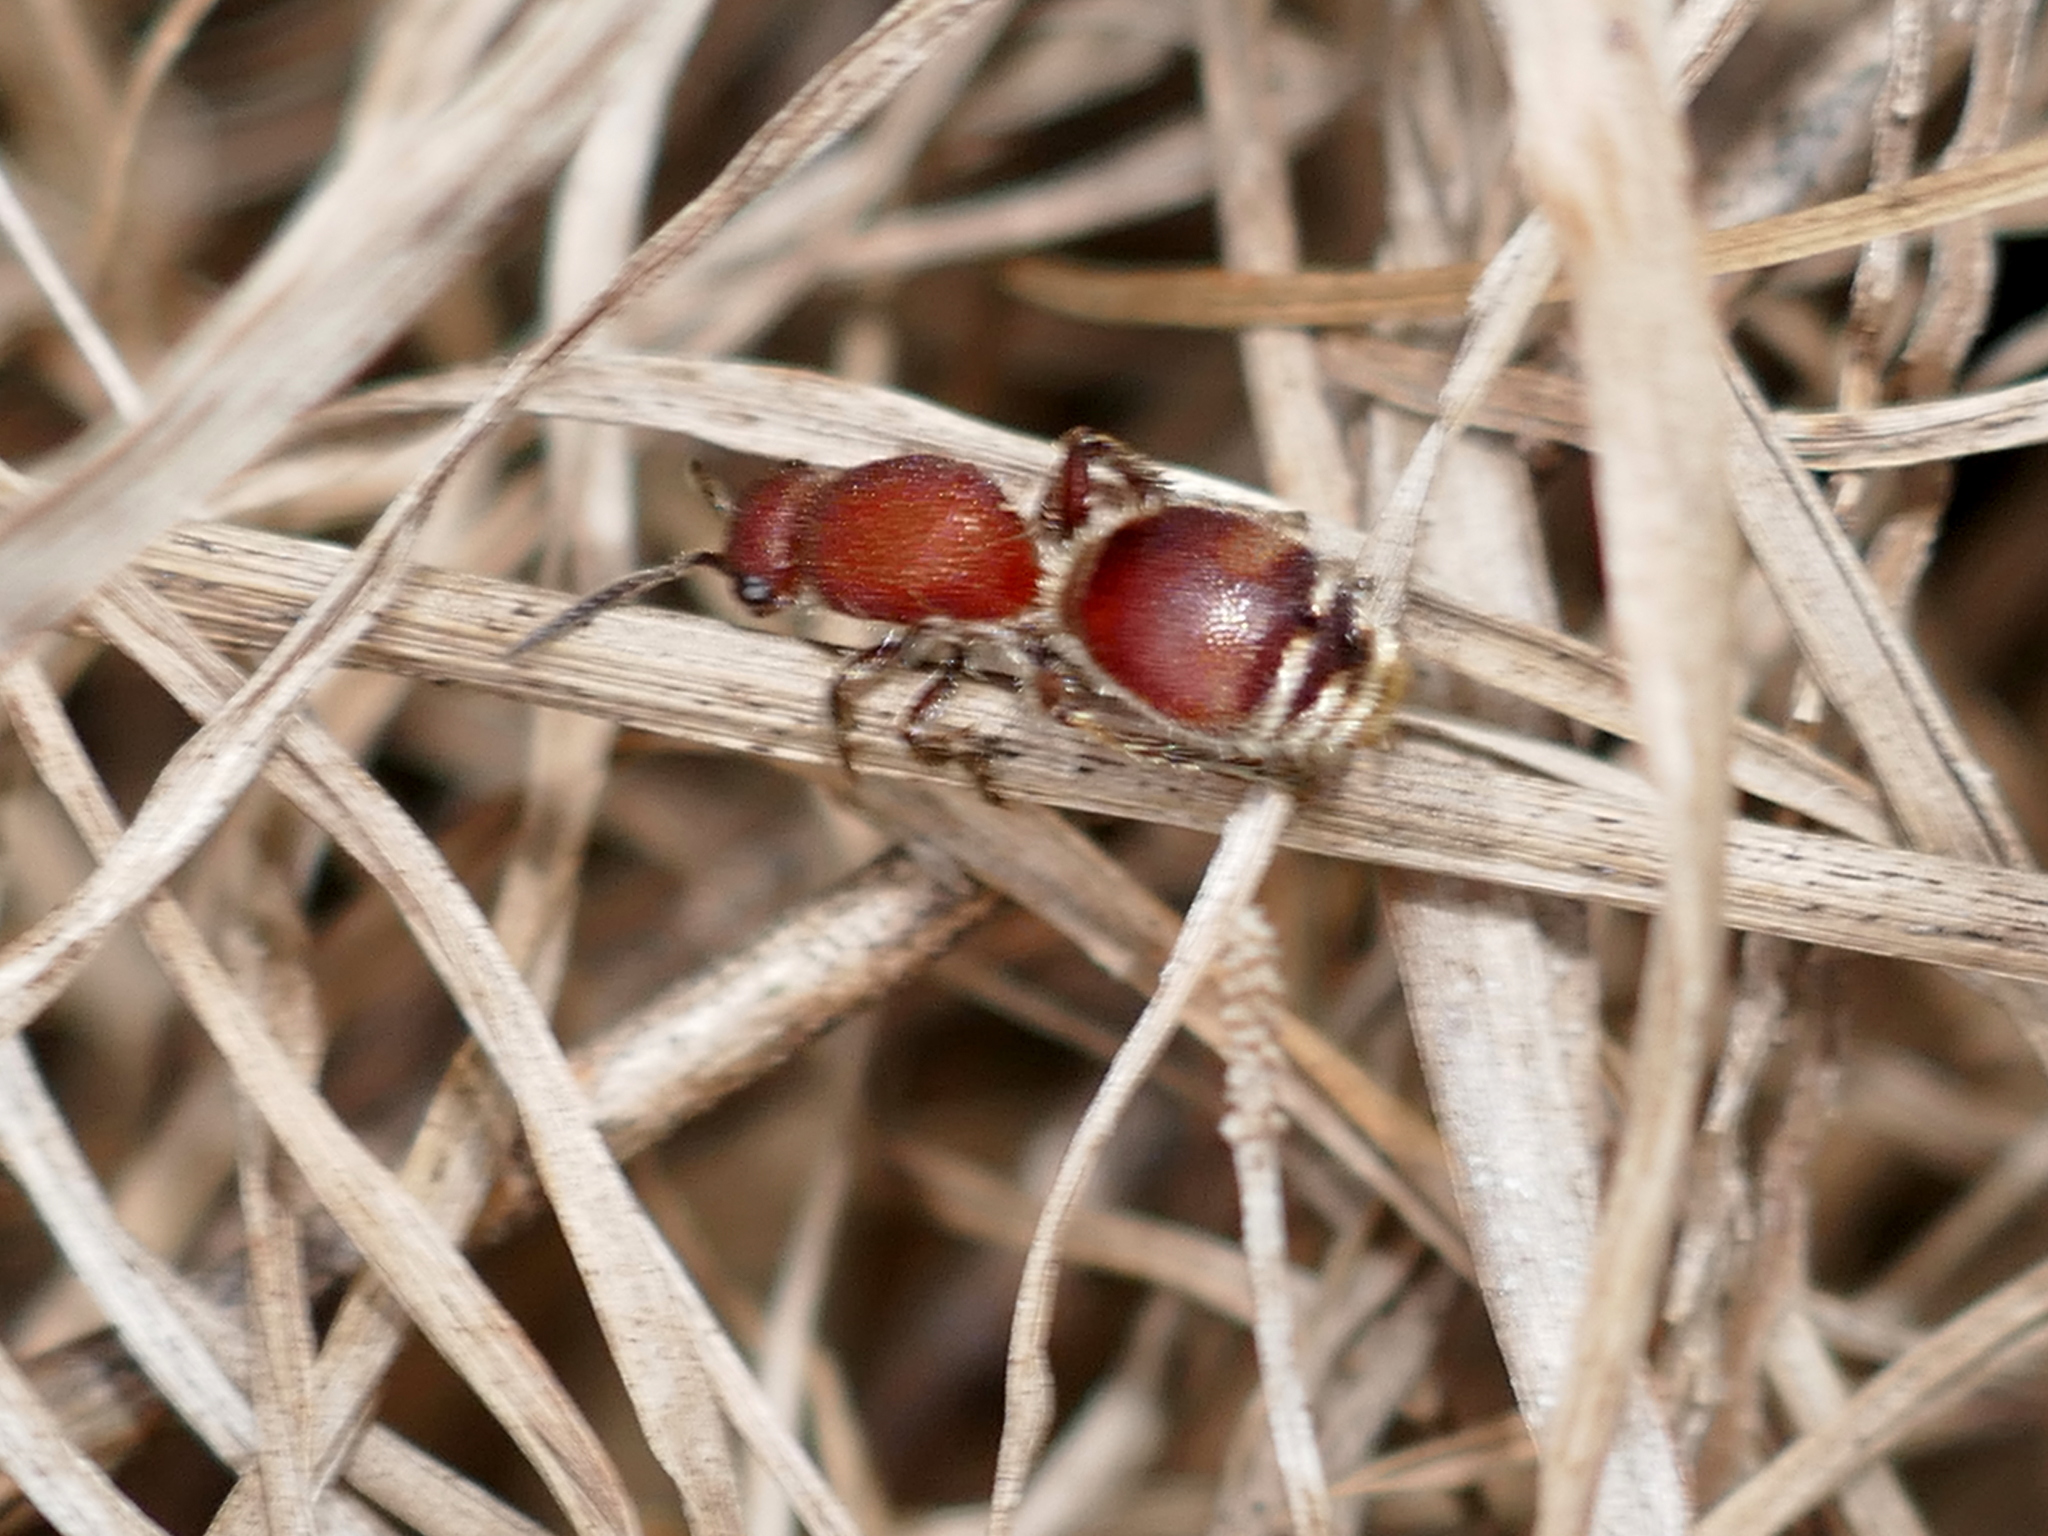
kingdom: Animalia
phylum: Arthropoda
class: Insecta
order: Hymenoptera
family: Mutillidae
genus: Dasymutilla
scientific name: Dasymutilla
